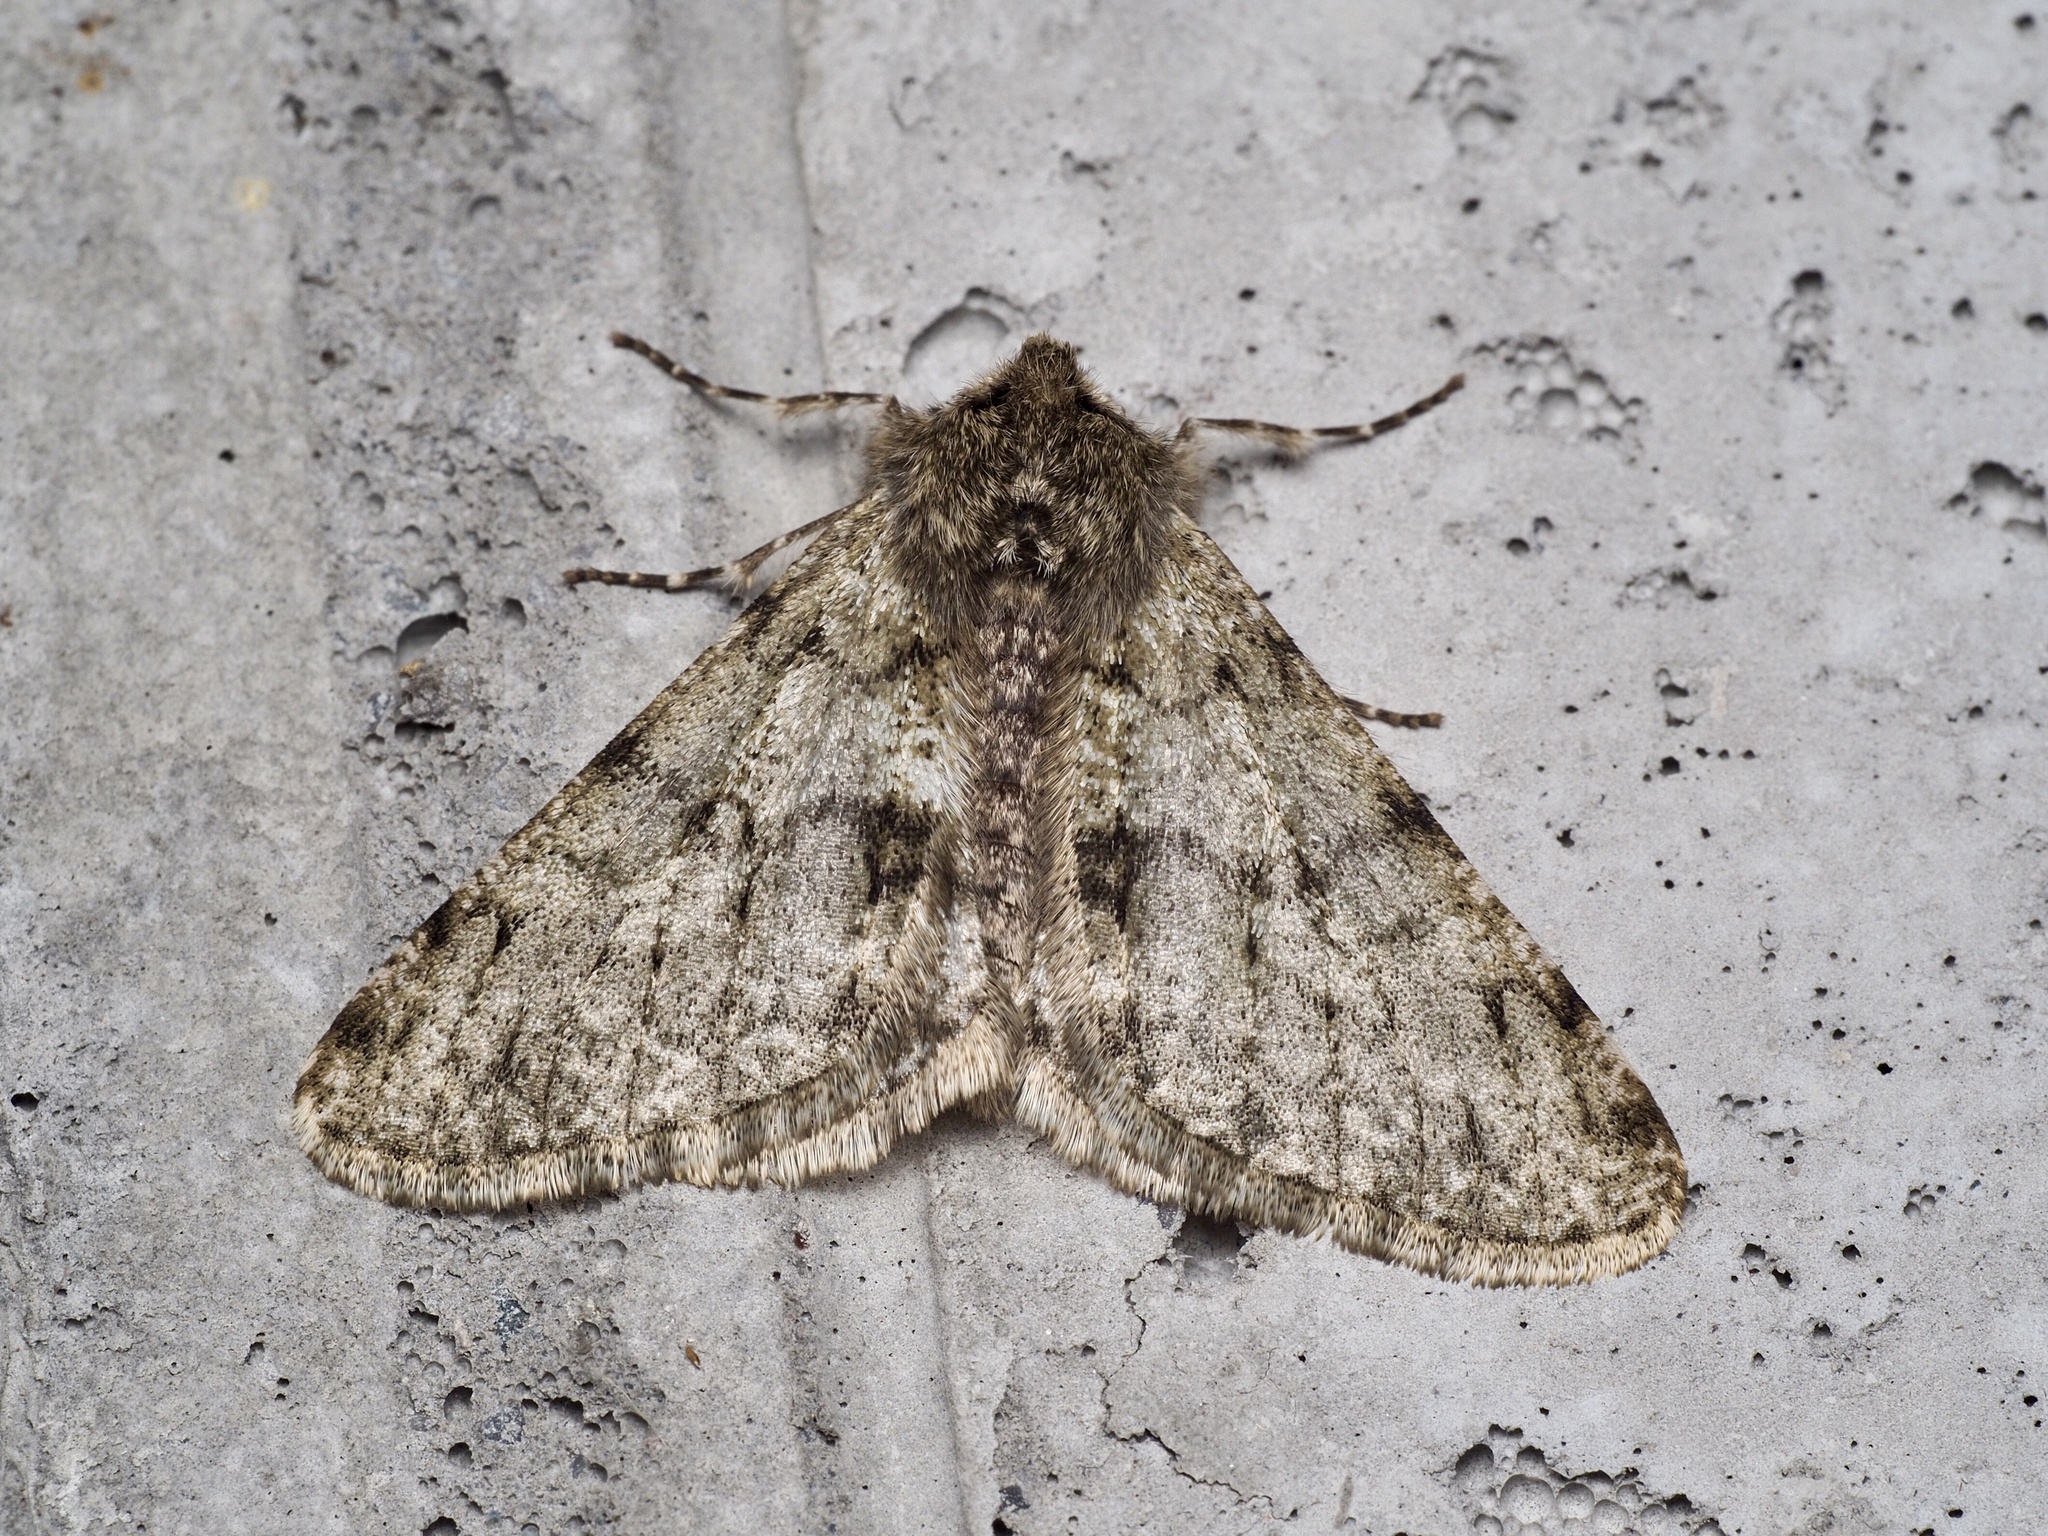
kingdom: Animalia
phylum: Arthropoda
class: Insecta
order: Lepidoptera
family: Geometridae
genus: Phigalia
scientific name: Phigalia pilosaria
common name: Pale brindled beauty
